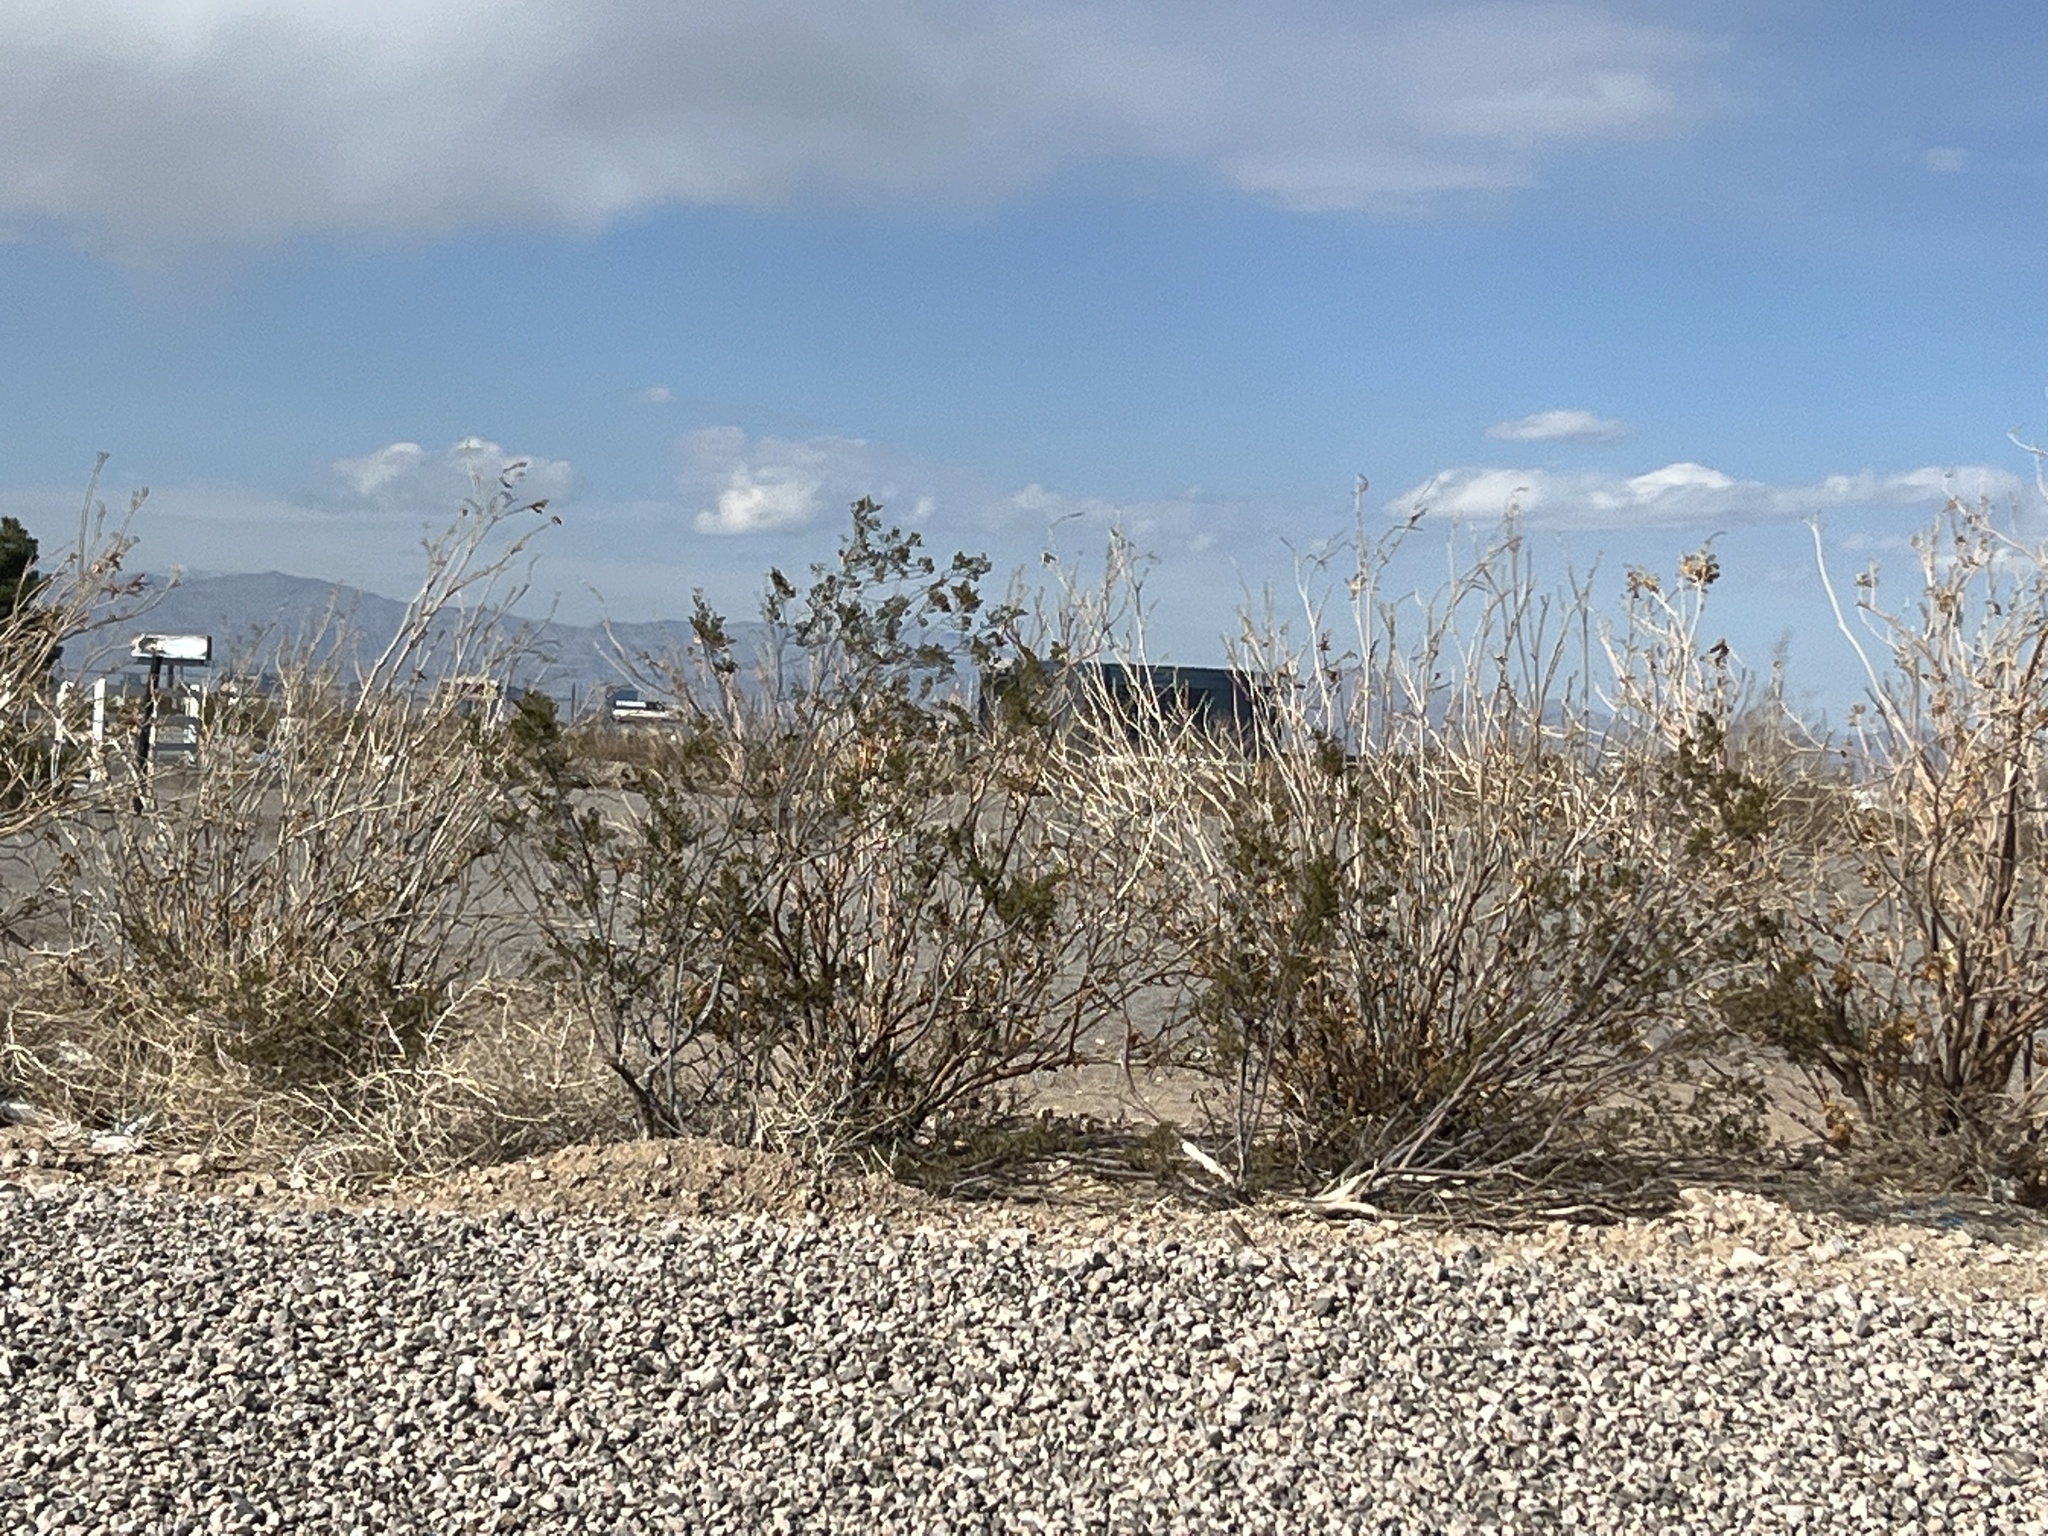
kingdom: Plantae
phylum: Tracheophyta
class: Magnoliopsida
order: Zygophyllales
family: Zygophyllaceae
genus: Larrea
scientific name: Larrea tridentata
